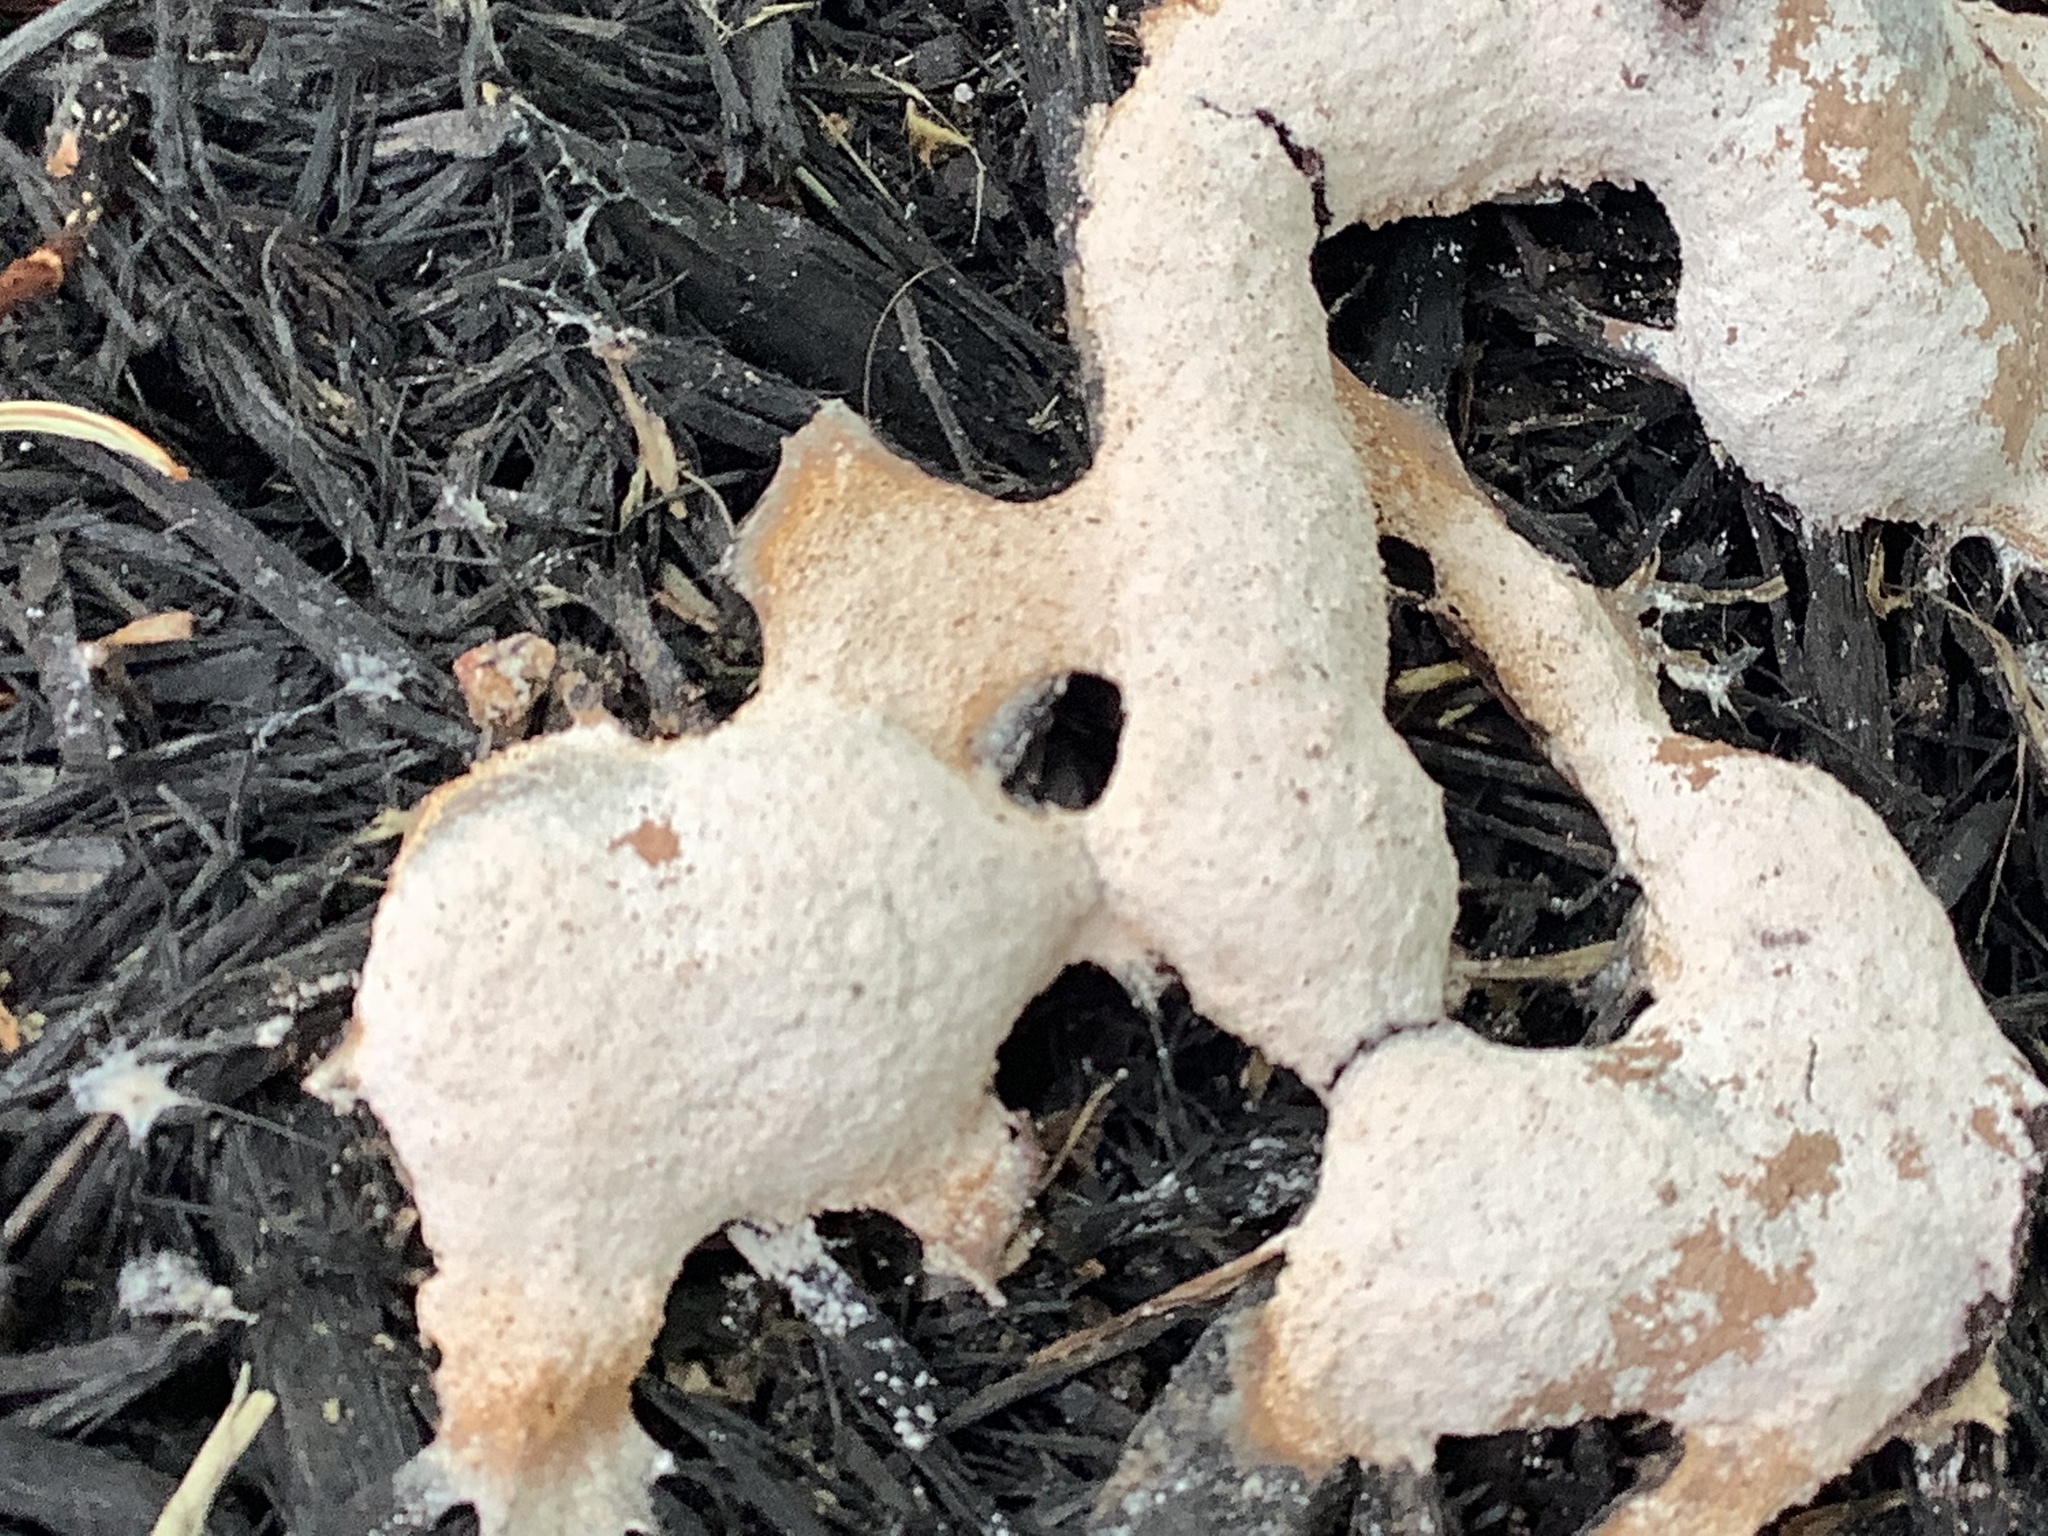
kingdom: Protozoa
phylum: Mycetozoa
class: Myxomycetes
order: Physarales
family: Physaraceae
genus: Fuligo
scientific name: Fuligo septica
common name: Dog vomit slime mold
